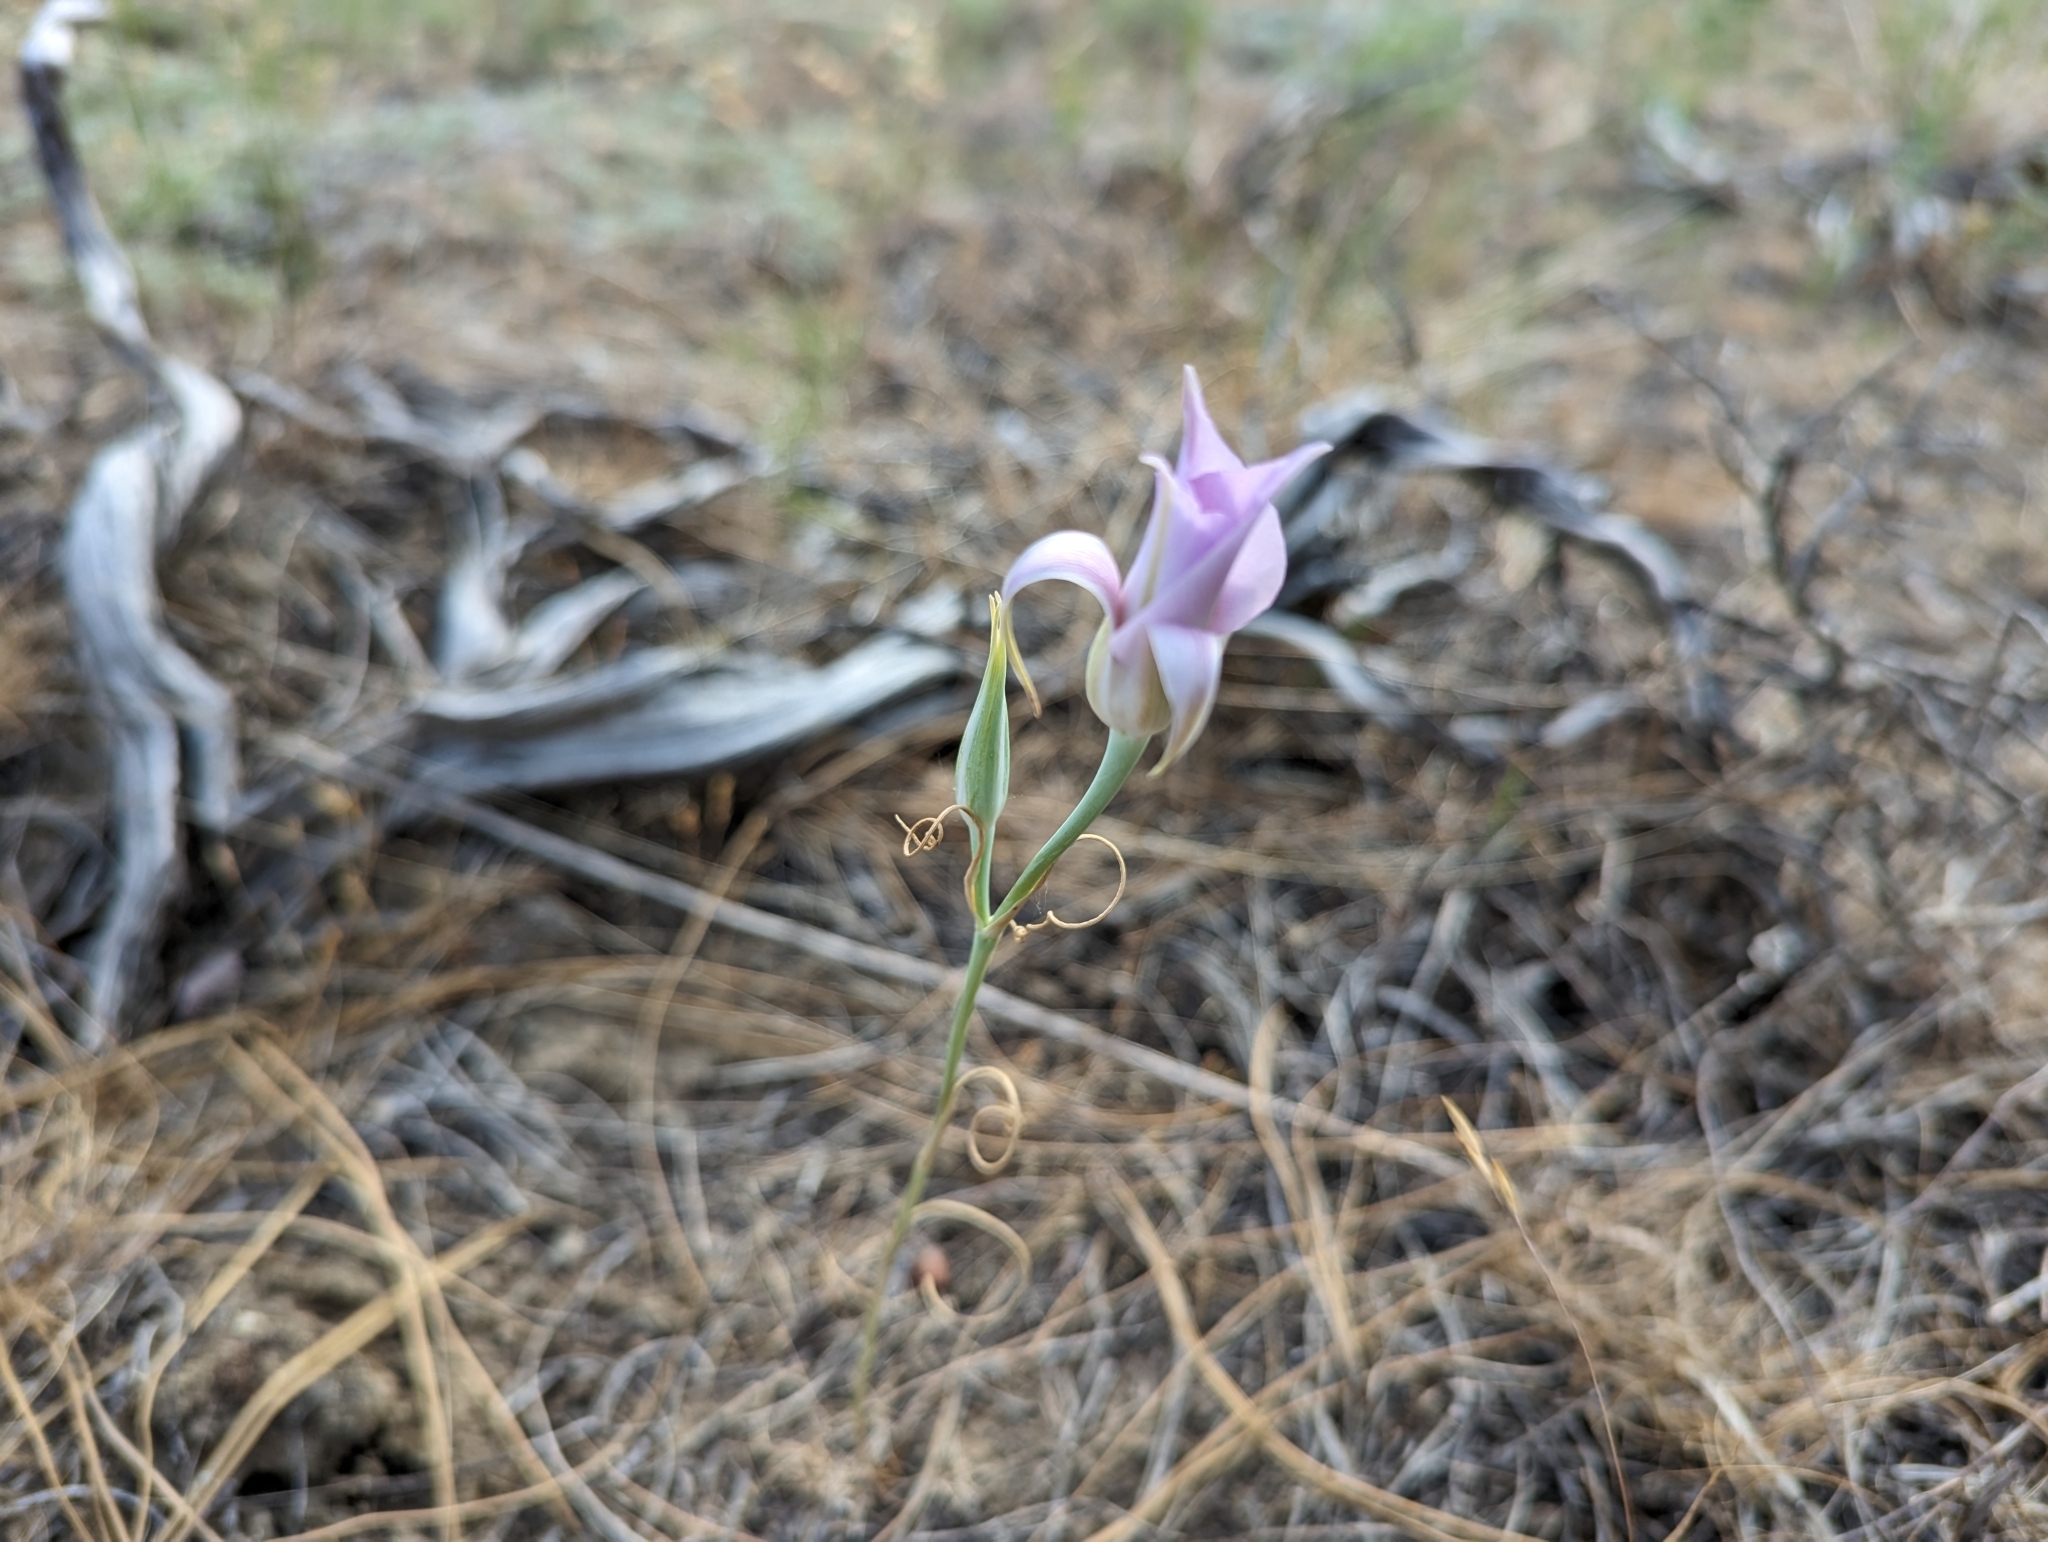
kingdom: Plantae
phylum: Tracheophyta
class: Liliopsida
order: Liliales
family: Liliaceae
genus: Calochortus
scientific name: Calochortus macrocarpus
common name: Green-band mariposa lily
